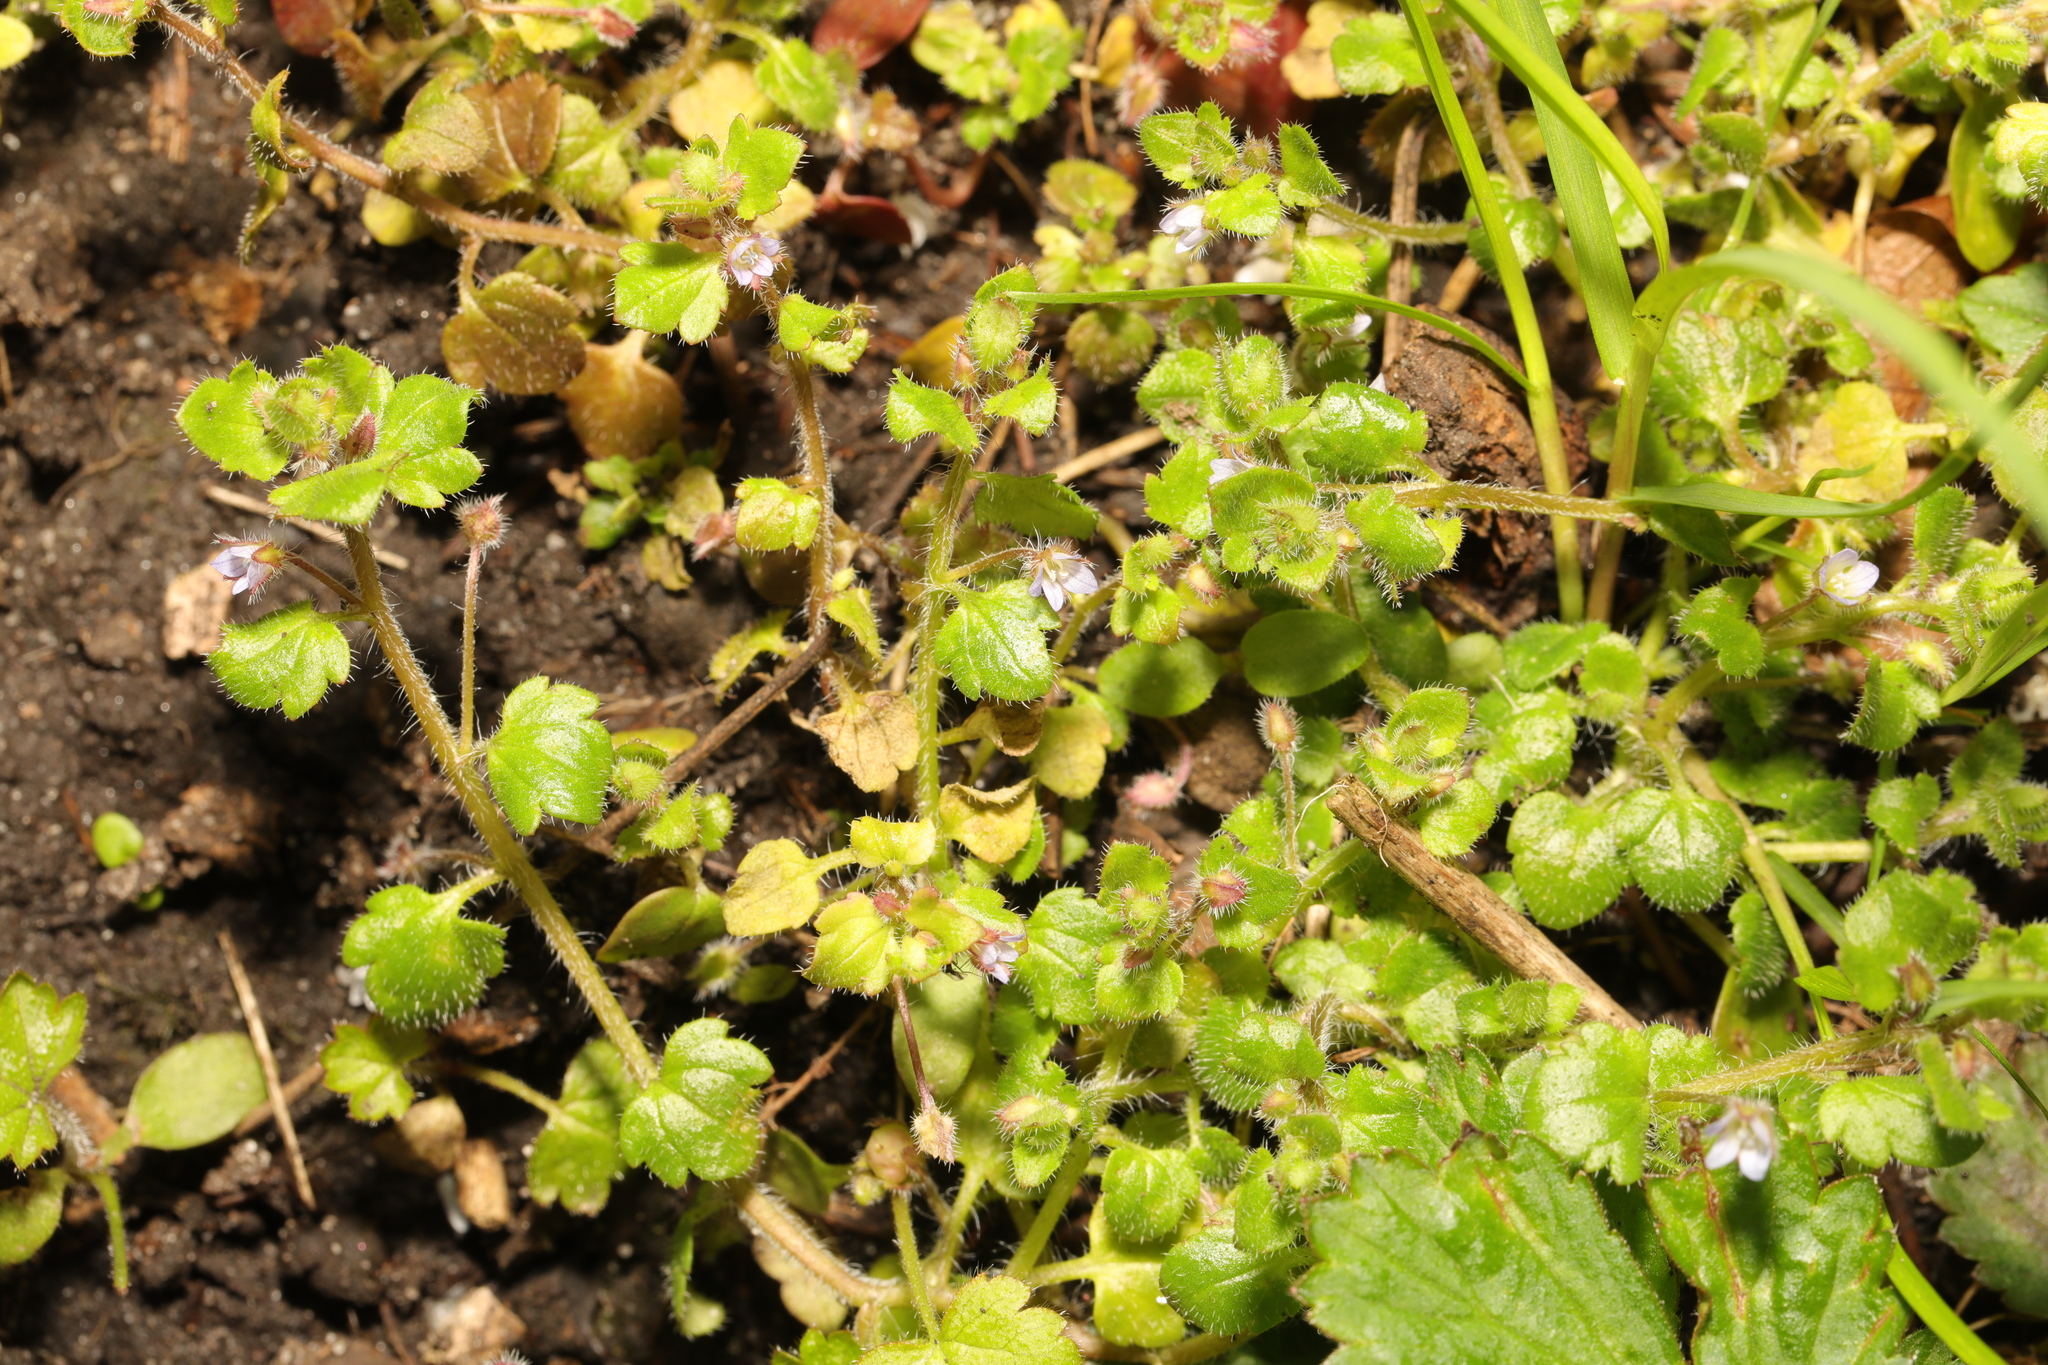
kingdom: Plantae
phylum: Tracheophyta
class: Magnoliopsida
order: Lamiales
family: Plantaginaceae
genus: Veronica
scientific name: Veronica sublobata
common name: False ivy-leaved speedwell
